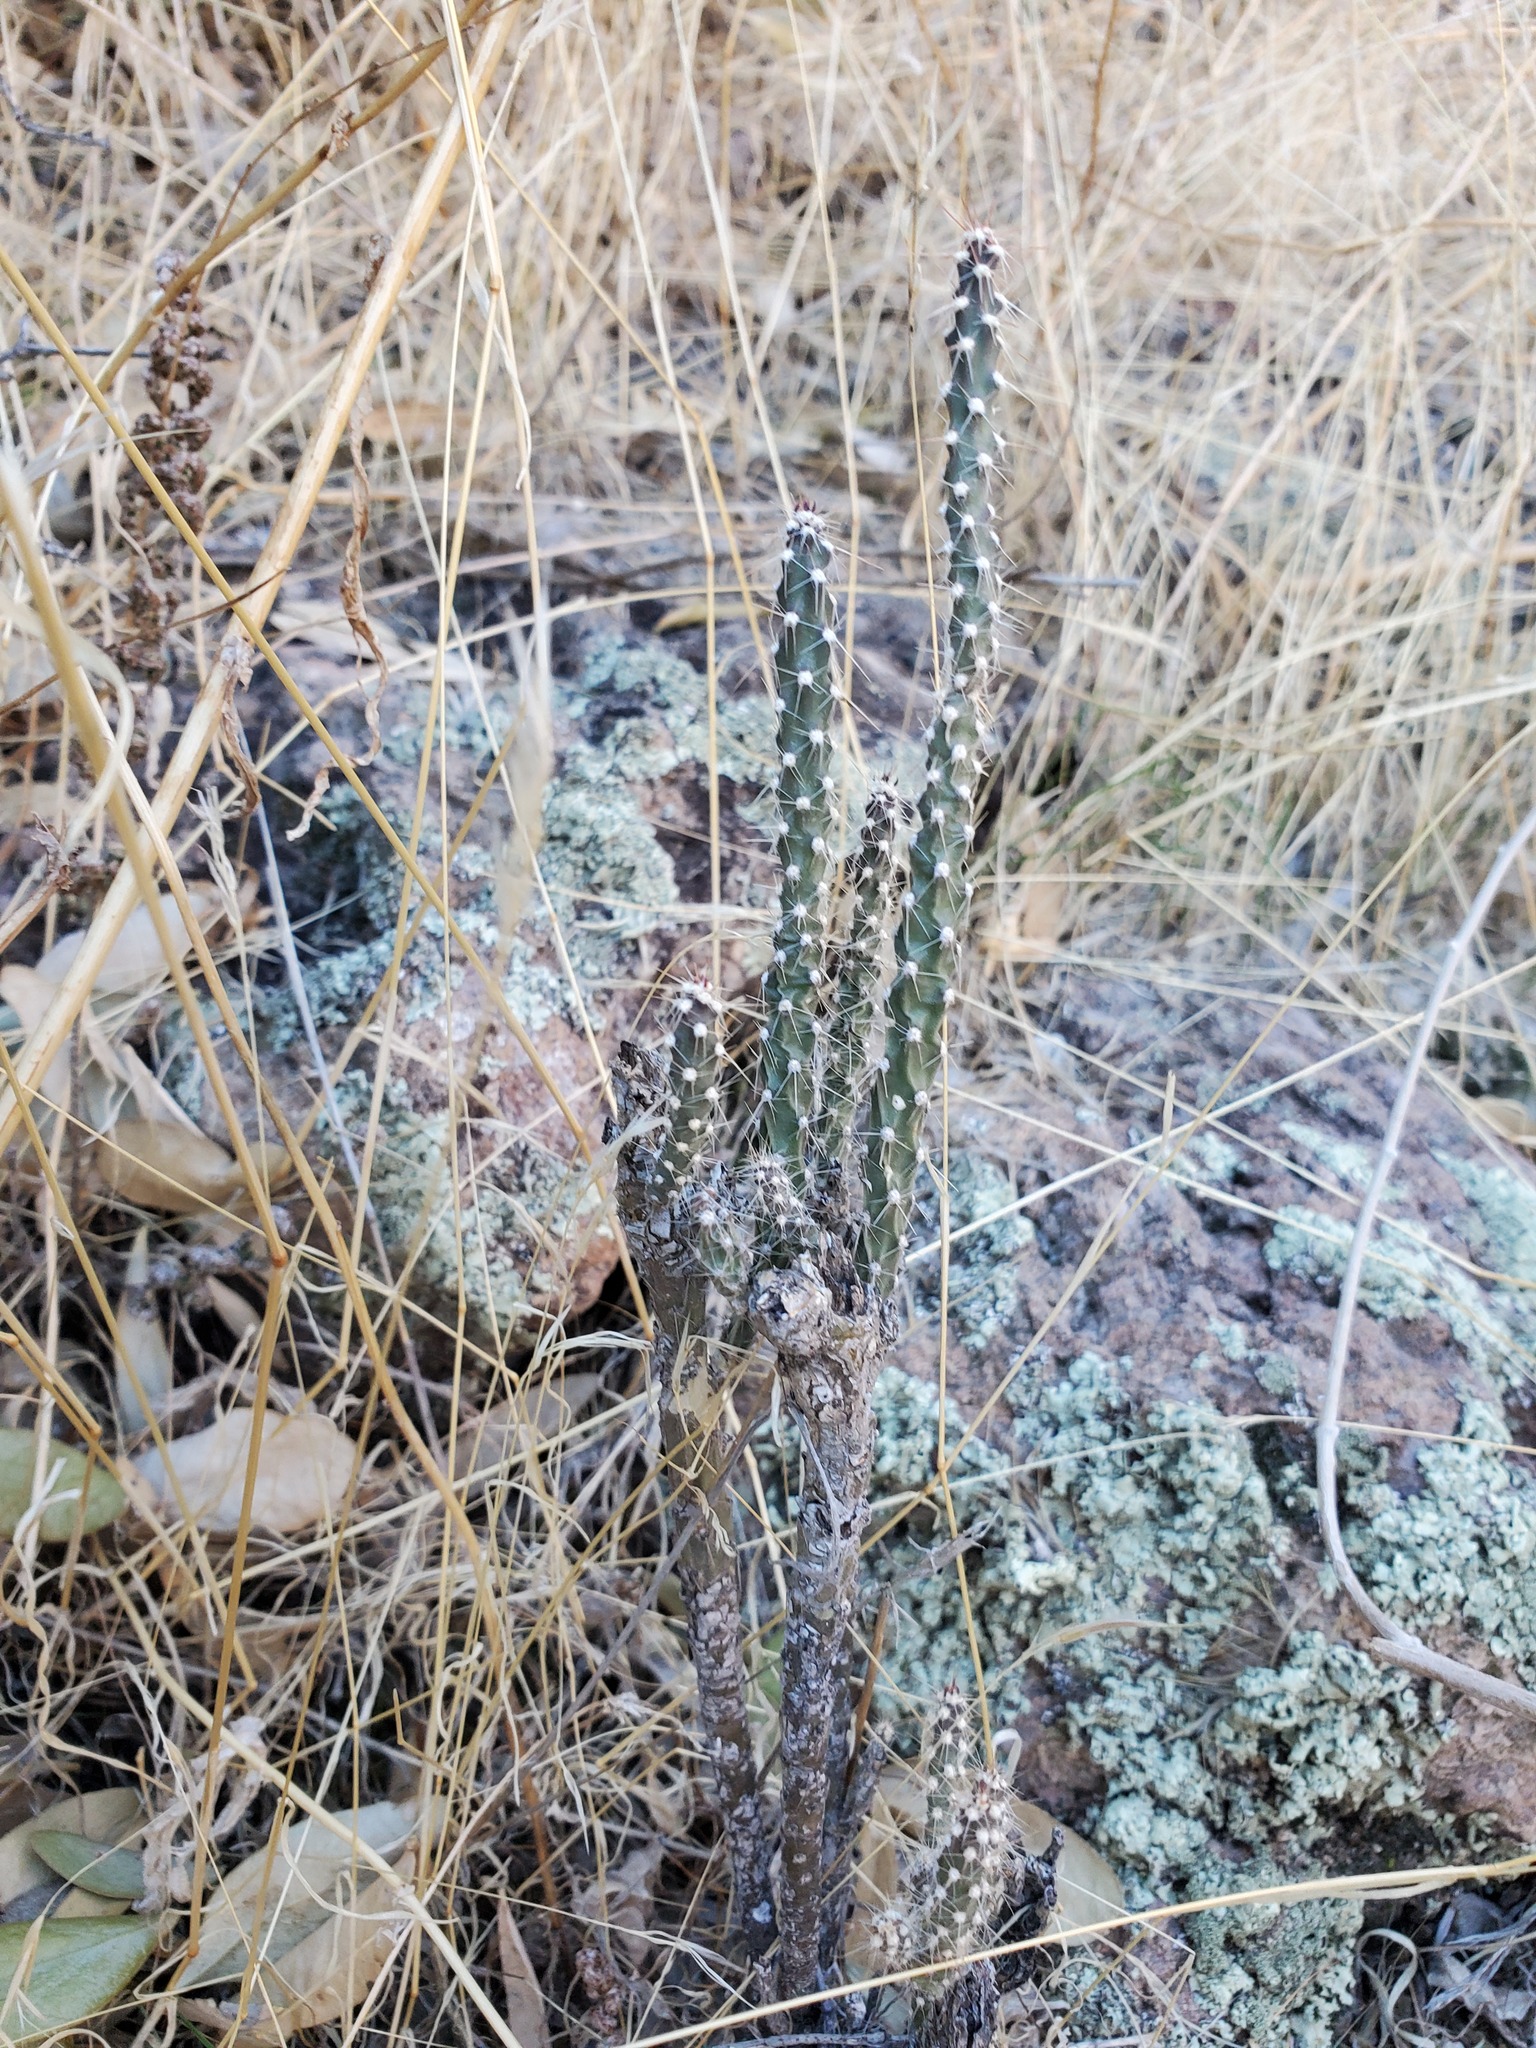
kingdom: Plantae
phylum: Tracheophyta
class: Magnoliopsida
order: Caryophyllales
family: Cactaceae
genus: Cylindropuntia
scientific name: Cylindropuntia acanthocarpa
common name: Buckhorn cholla
